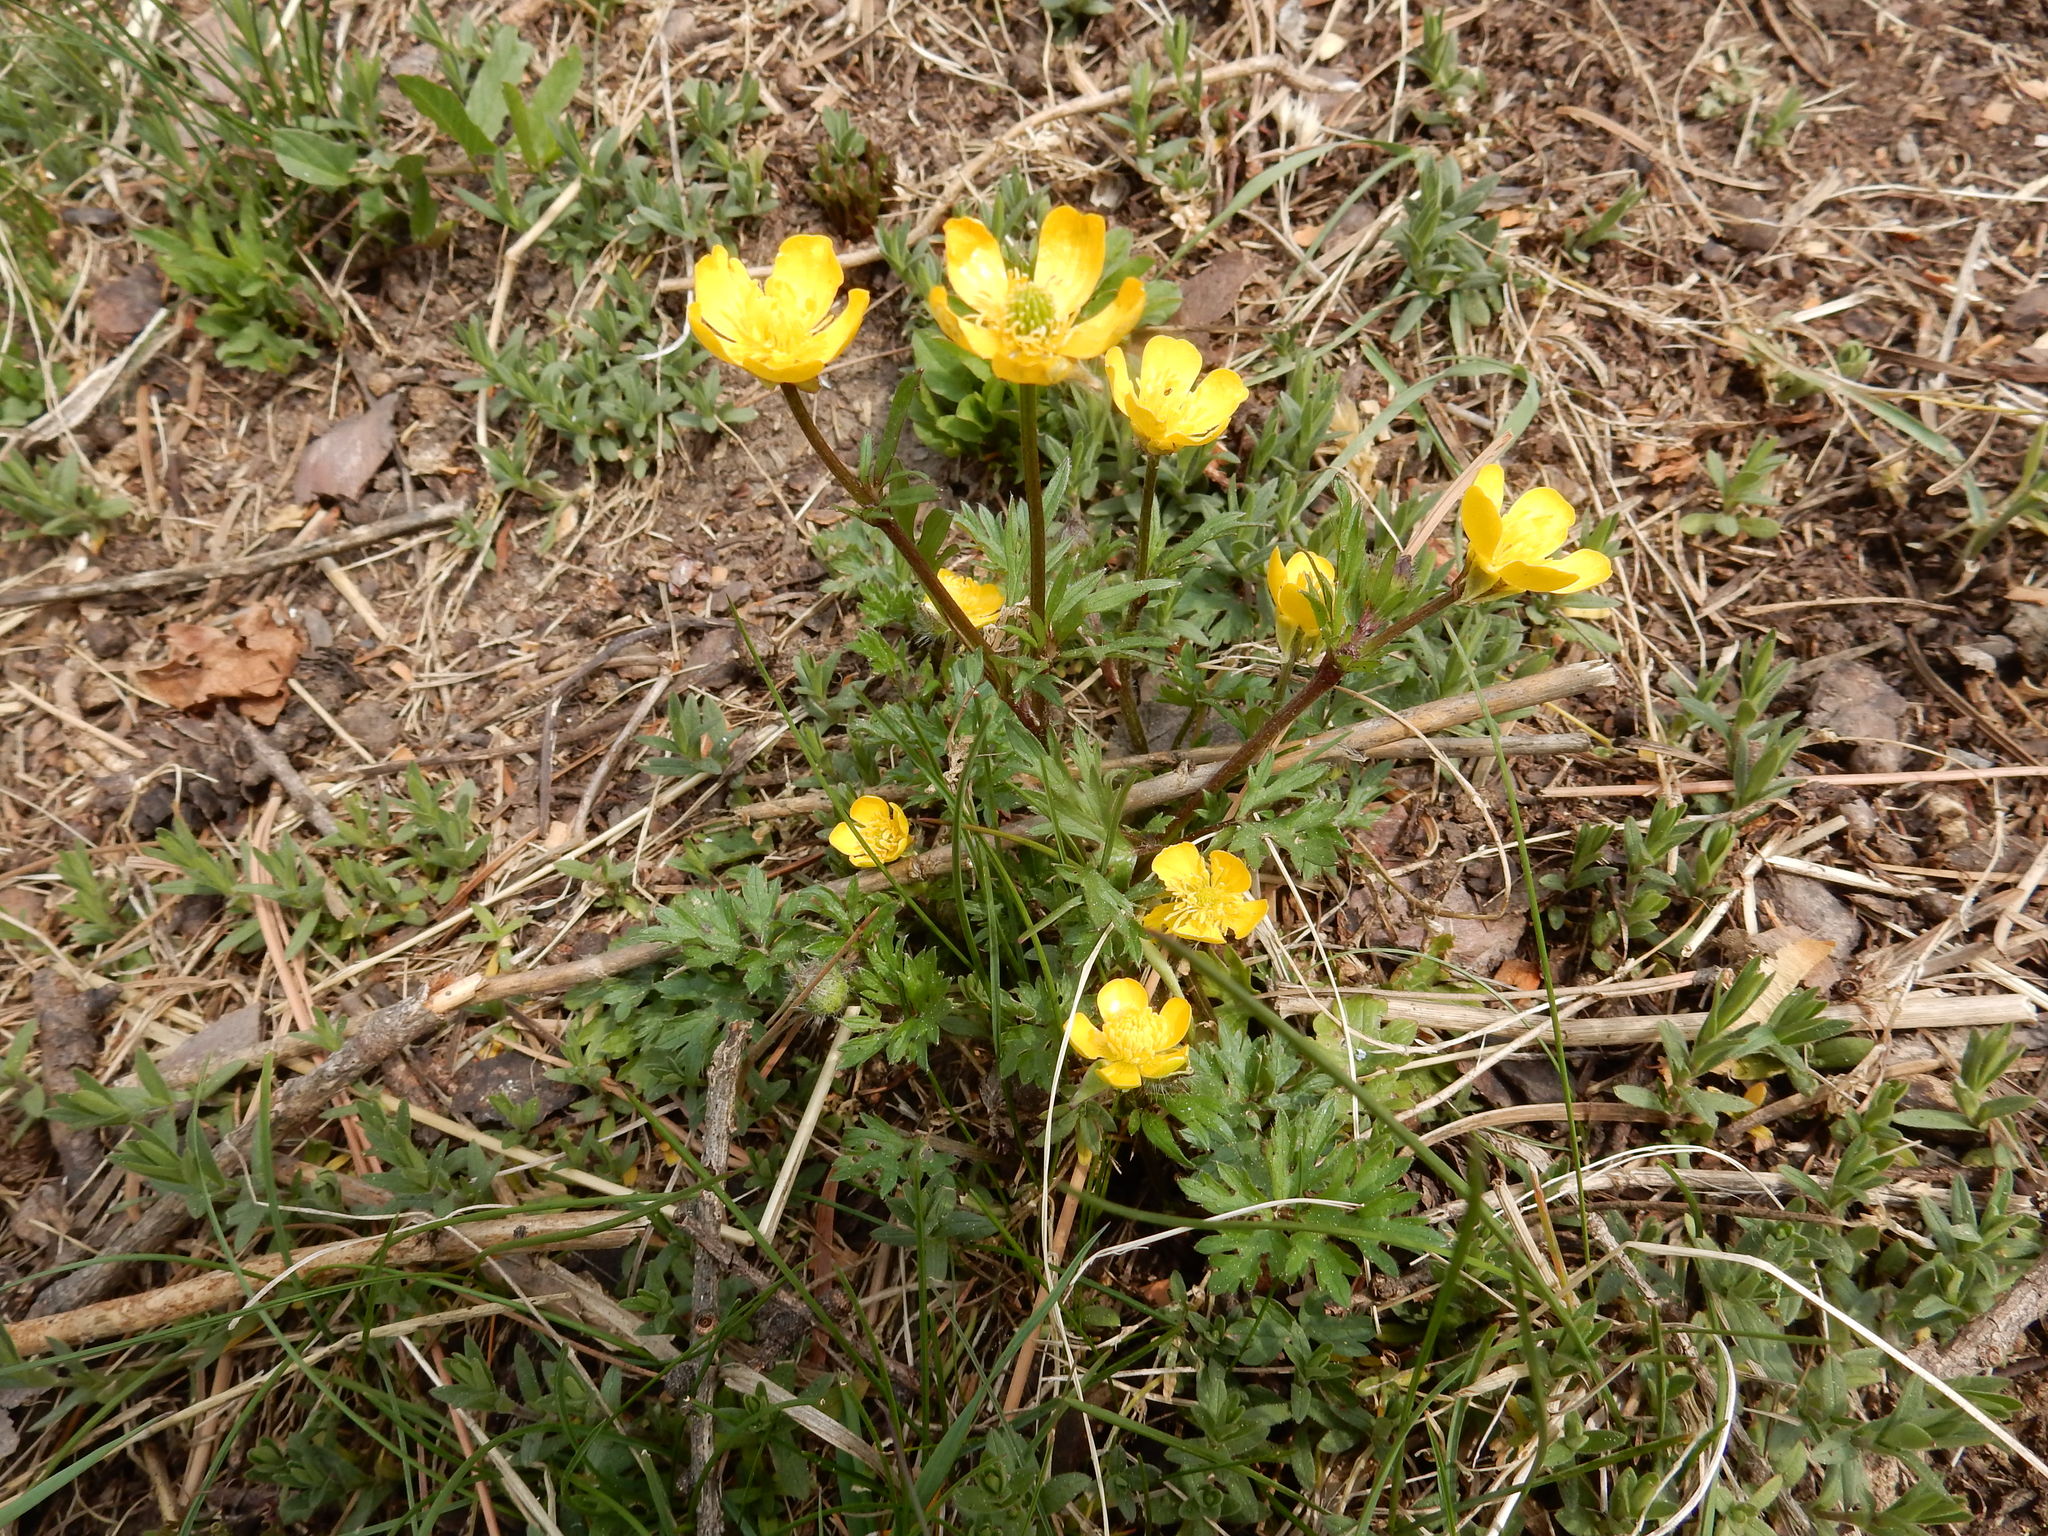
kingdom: Plantae
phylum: Tracheophyta
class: Magnoliopsida
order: Ranunculales
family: Ranunculaceae
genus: Ranunculus
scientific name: Ranunculus bulbosus
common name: Bulbous buttercup
